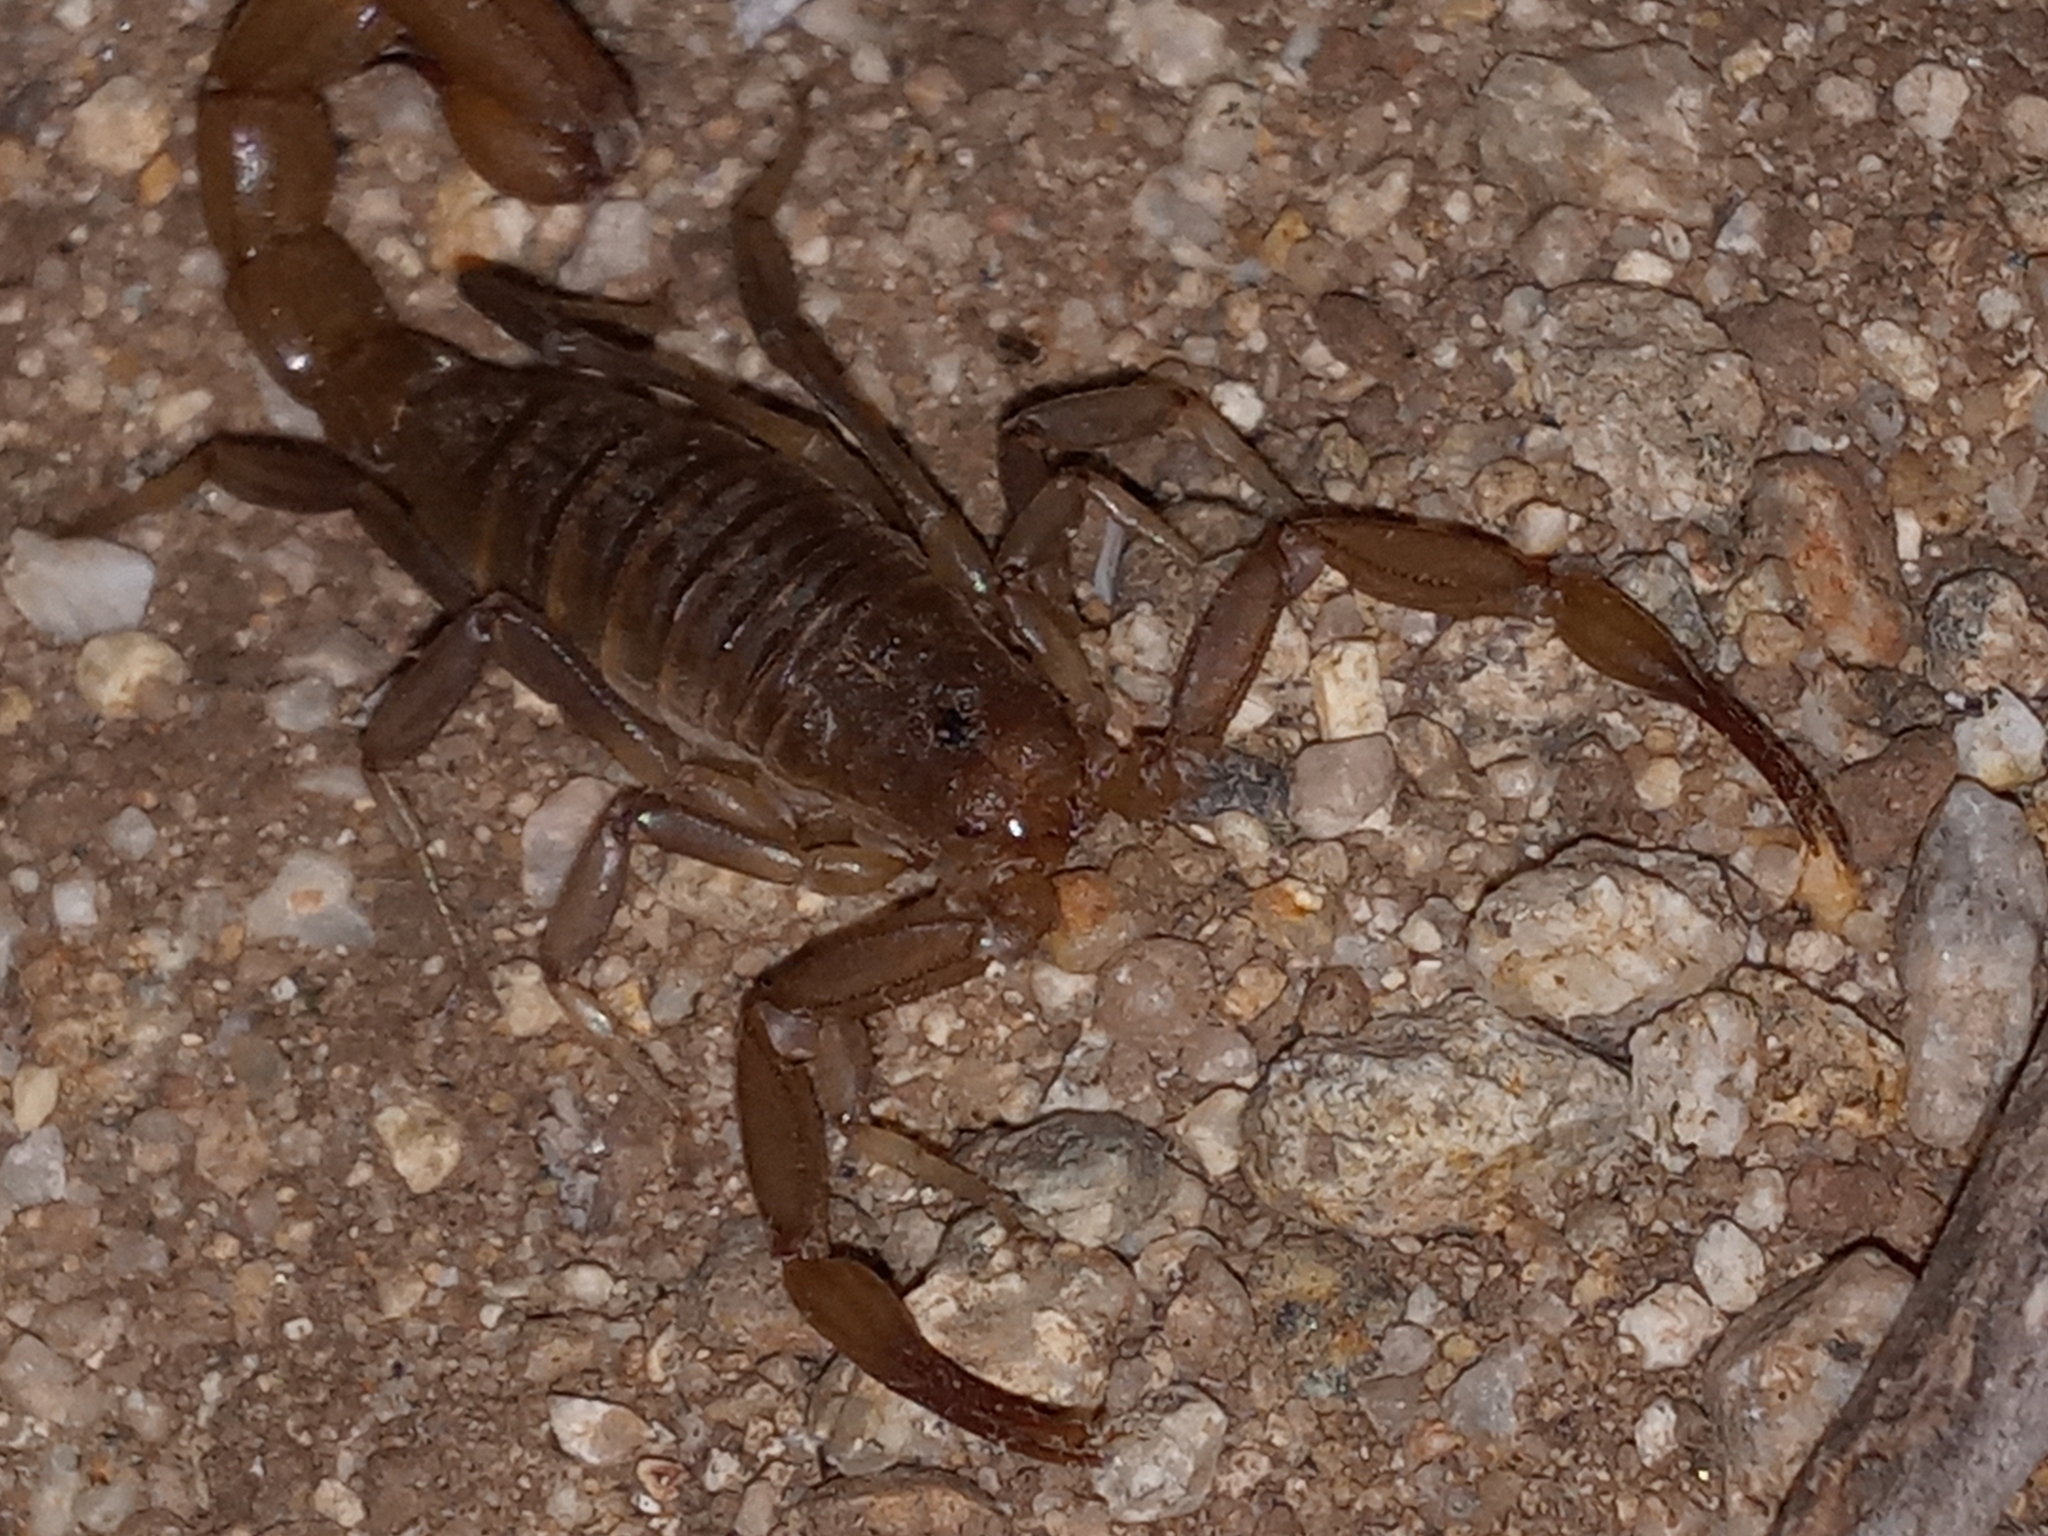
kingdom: Animalia
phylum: Arthropoda
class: Arachnida
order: Scorpiones
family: Vaejovidae
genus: Paravaejovis
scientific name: Paravaejovis puritanus
